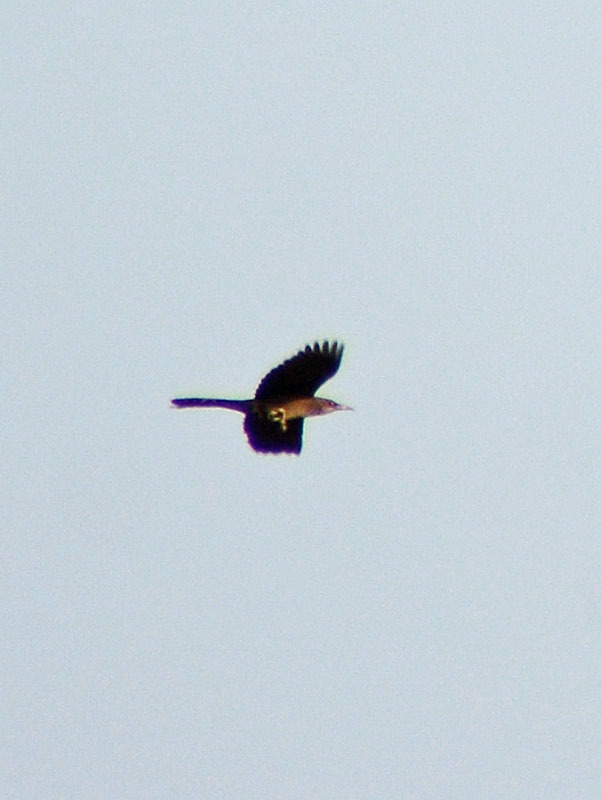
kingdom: Animalia
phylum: Chordata
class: Aves
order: Passeriformes
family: Icteridae
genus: Quiscalus
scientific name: Quiscalus mexicanus
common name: Great-tailed grackle
